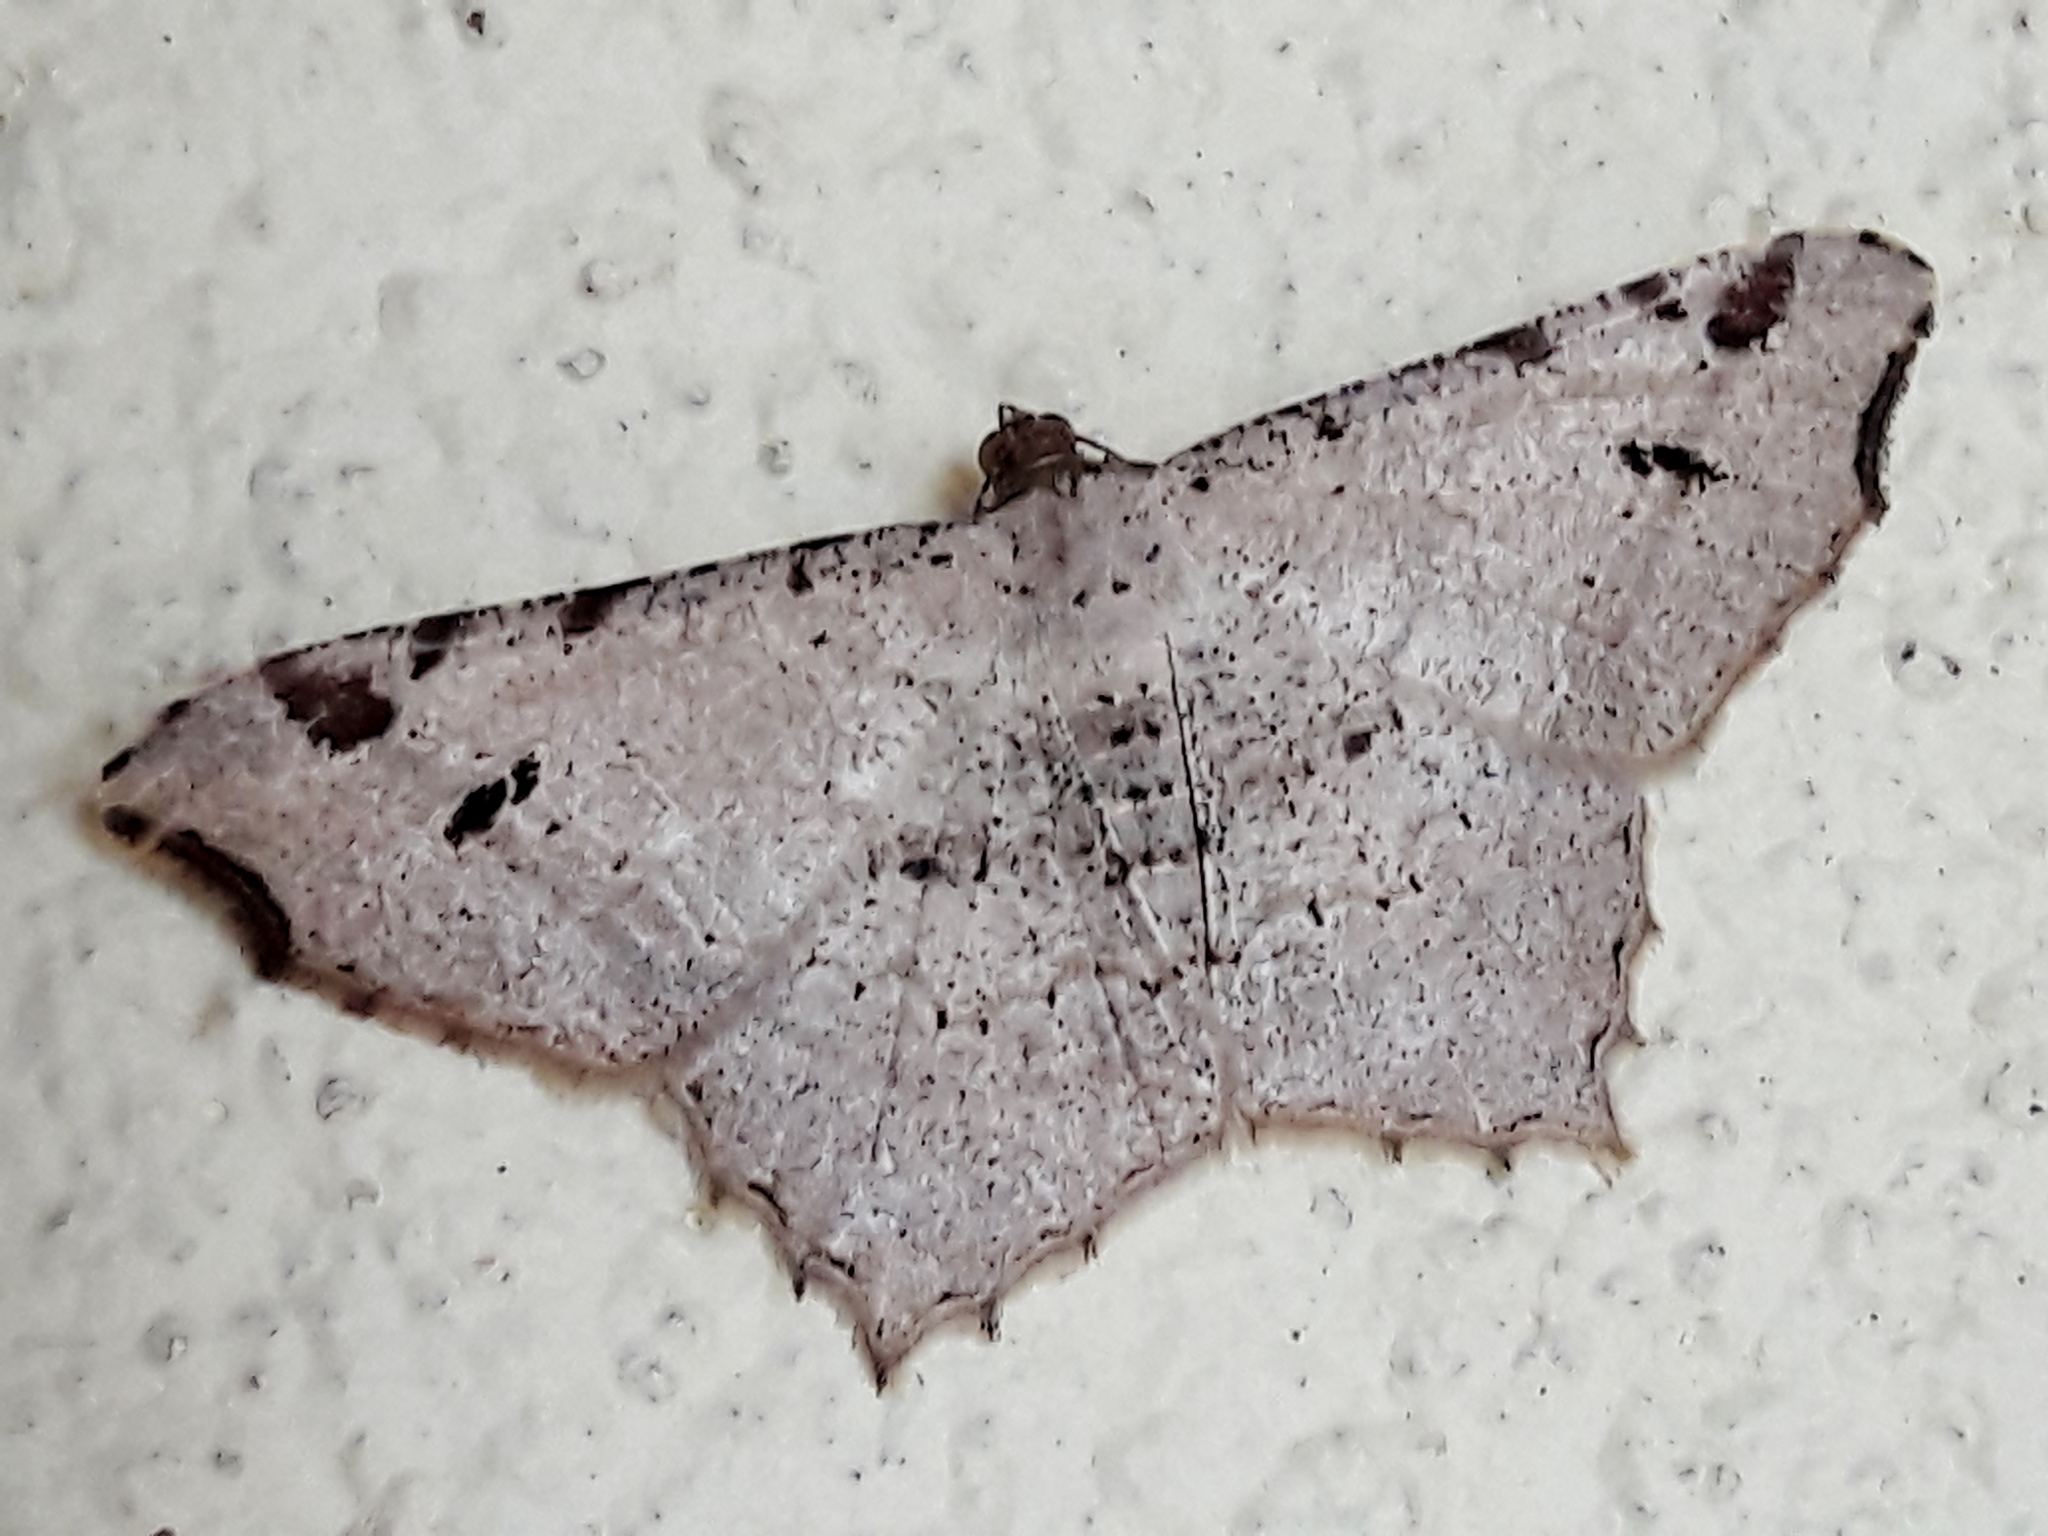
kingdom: Animalia
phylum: Arthropoda
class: Insecta
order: Lepidoptera
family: Geometridae
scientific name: Geometridae
